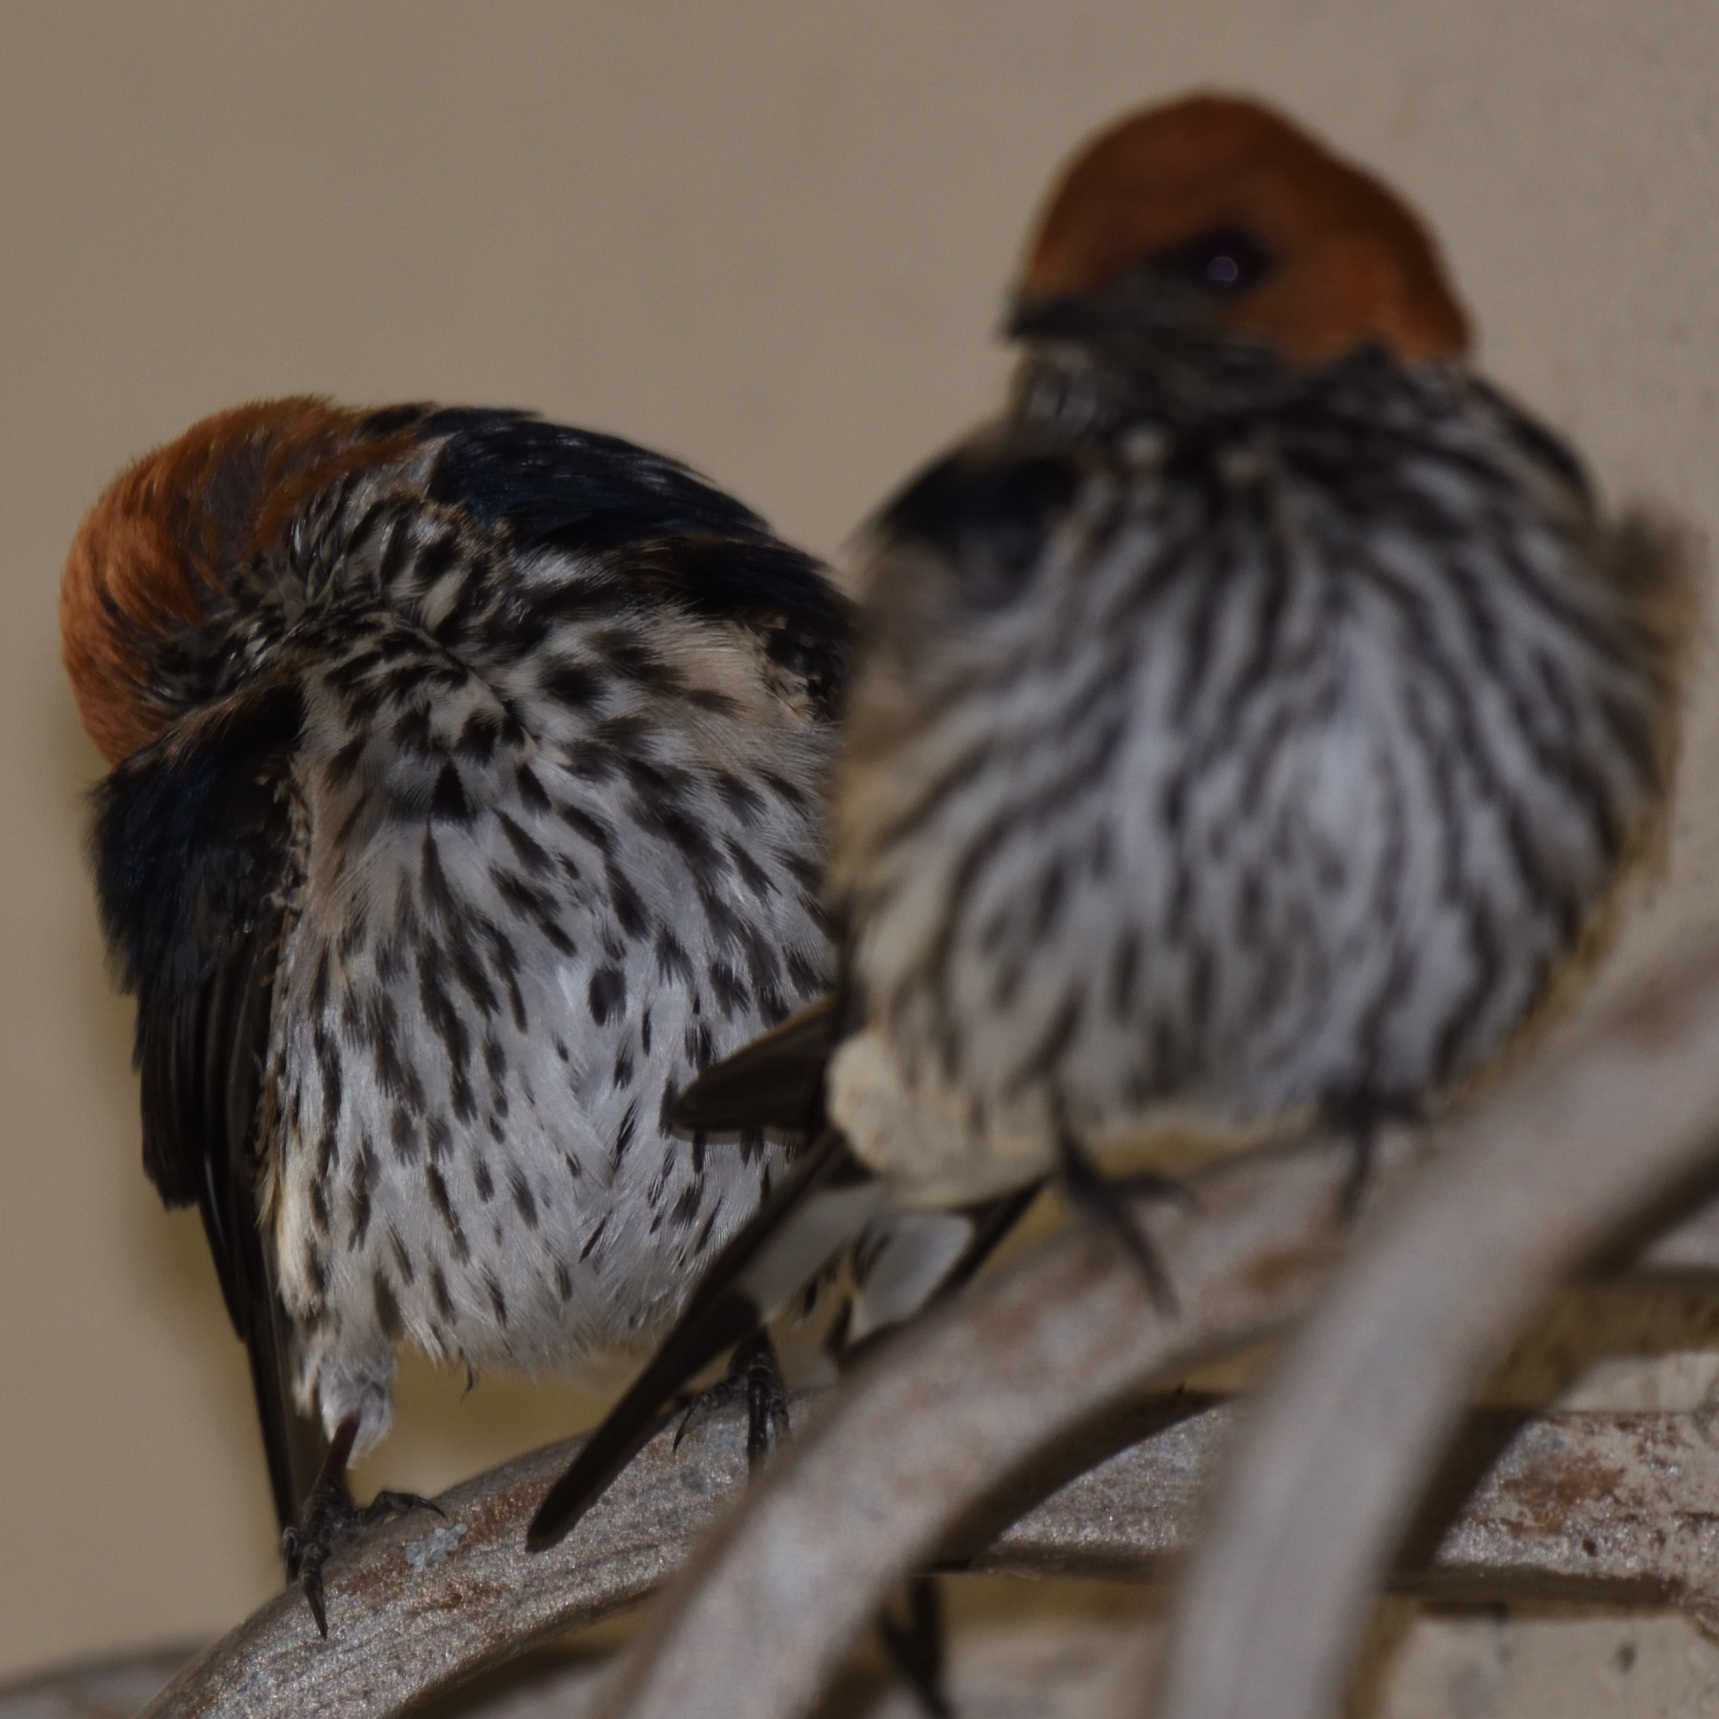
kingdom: Animalia
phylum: Chordata
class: Aves
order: Passeriformes
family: Hirundinidae
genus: Cecropis
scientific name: Cecropis abyssinica
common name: Lesser striped-swallow
